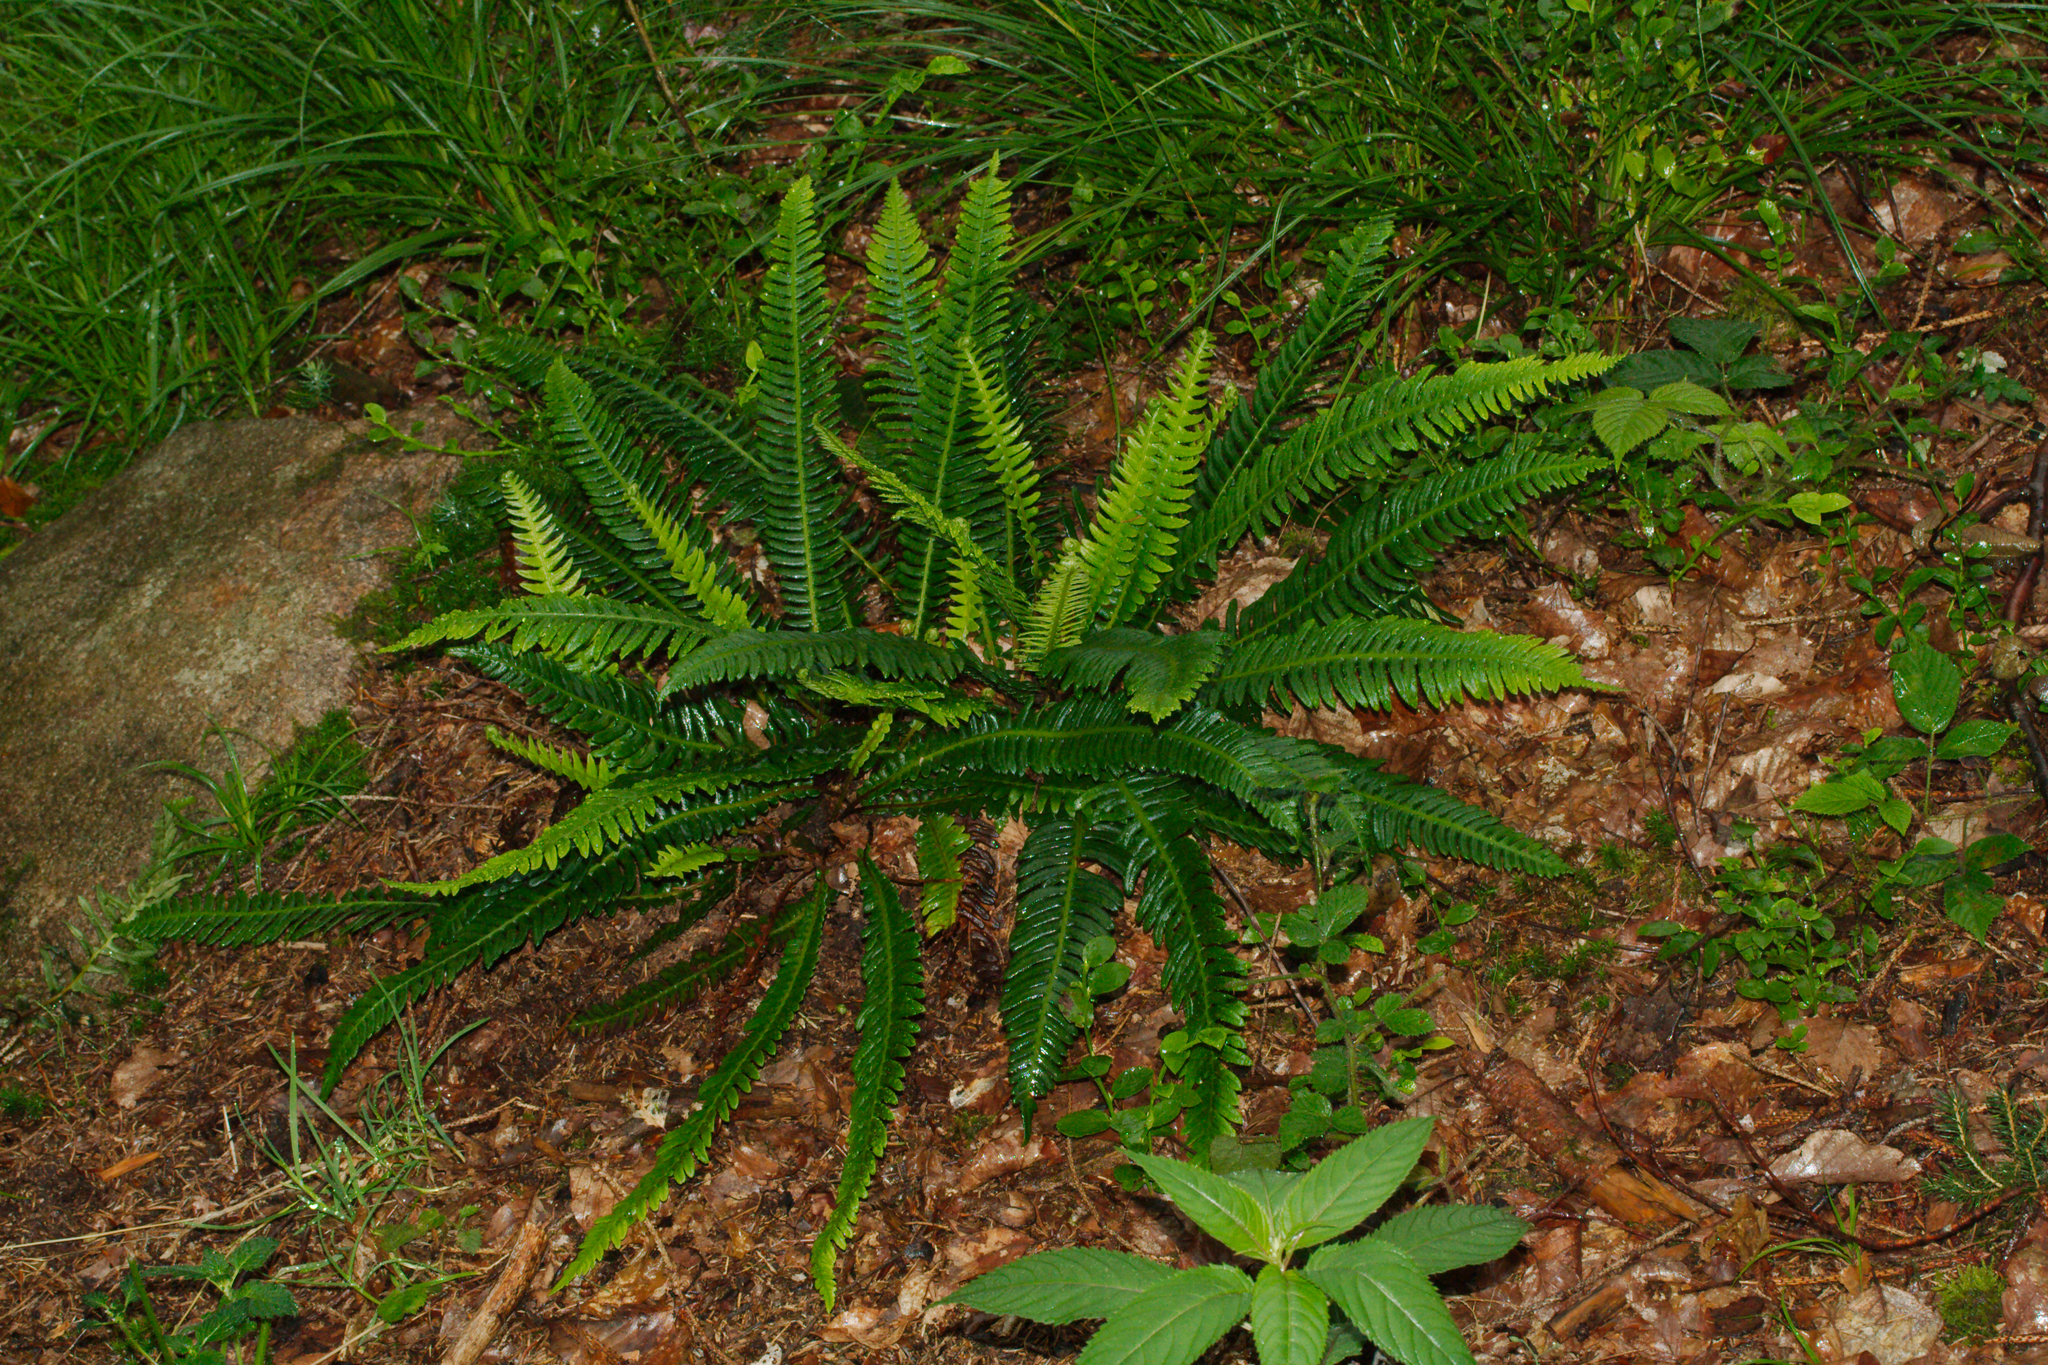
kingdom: Plantae
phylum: Tracheophyta
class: Polypodiopsida
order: Polypodiales
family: Blechnaceae
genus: Struthiopteris
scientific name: Struthiopteris spicant
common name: Deer fern
